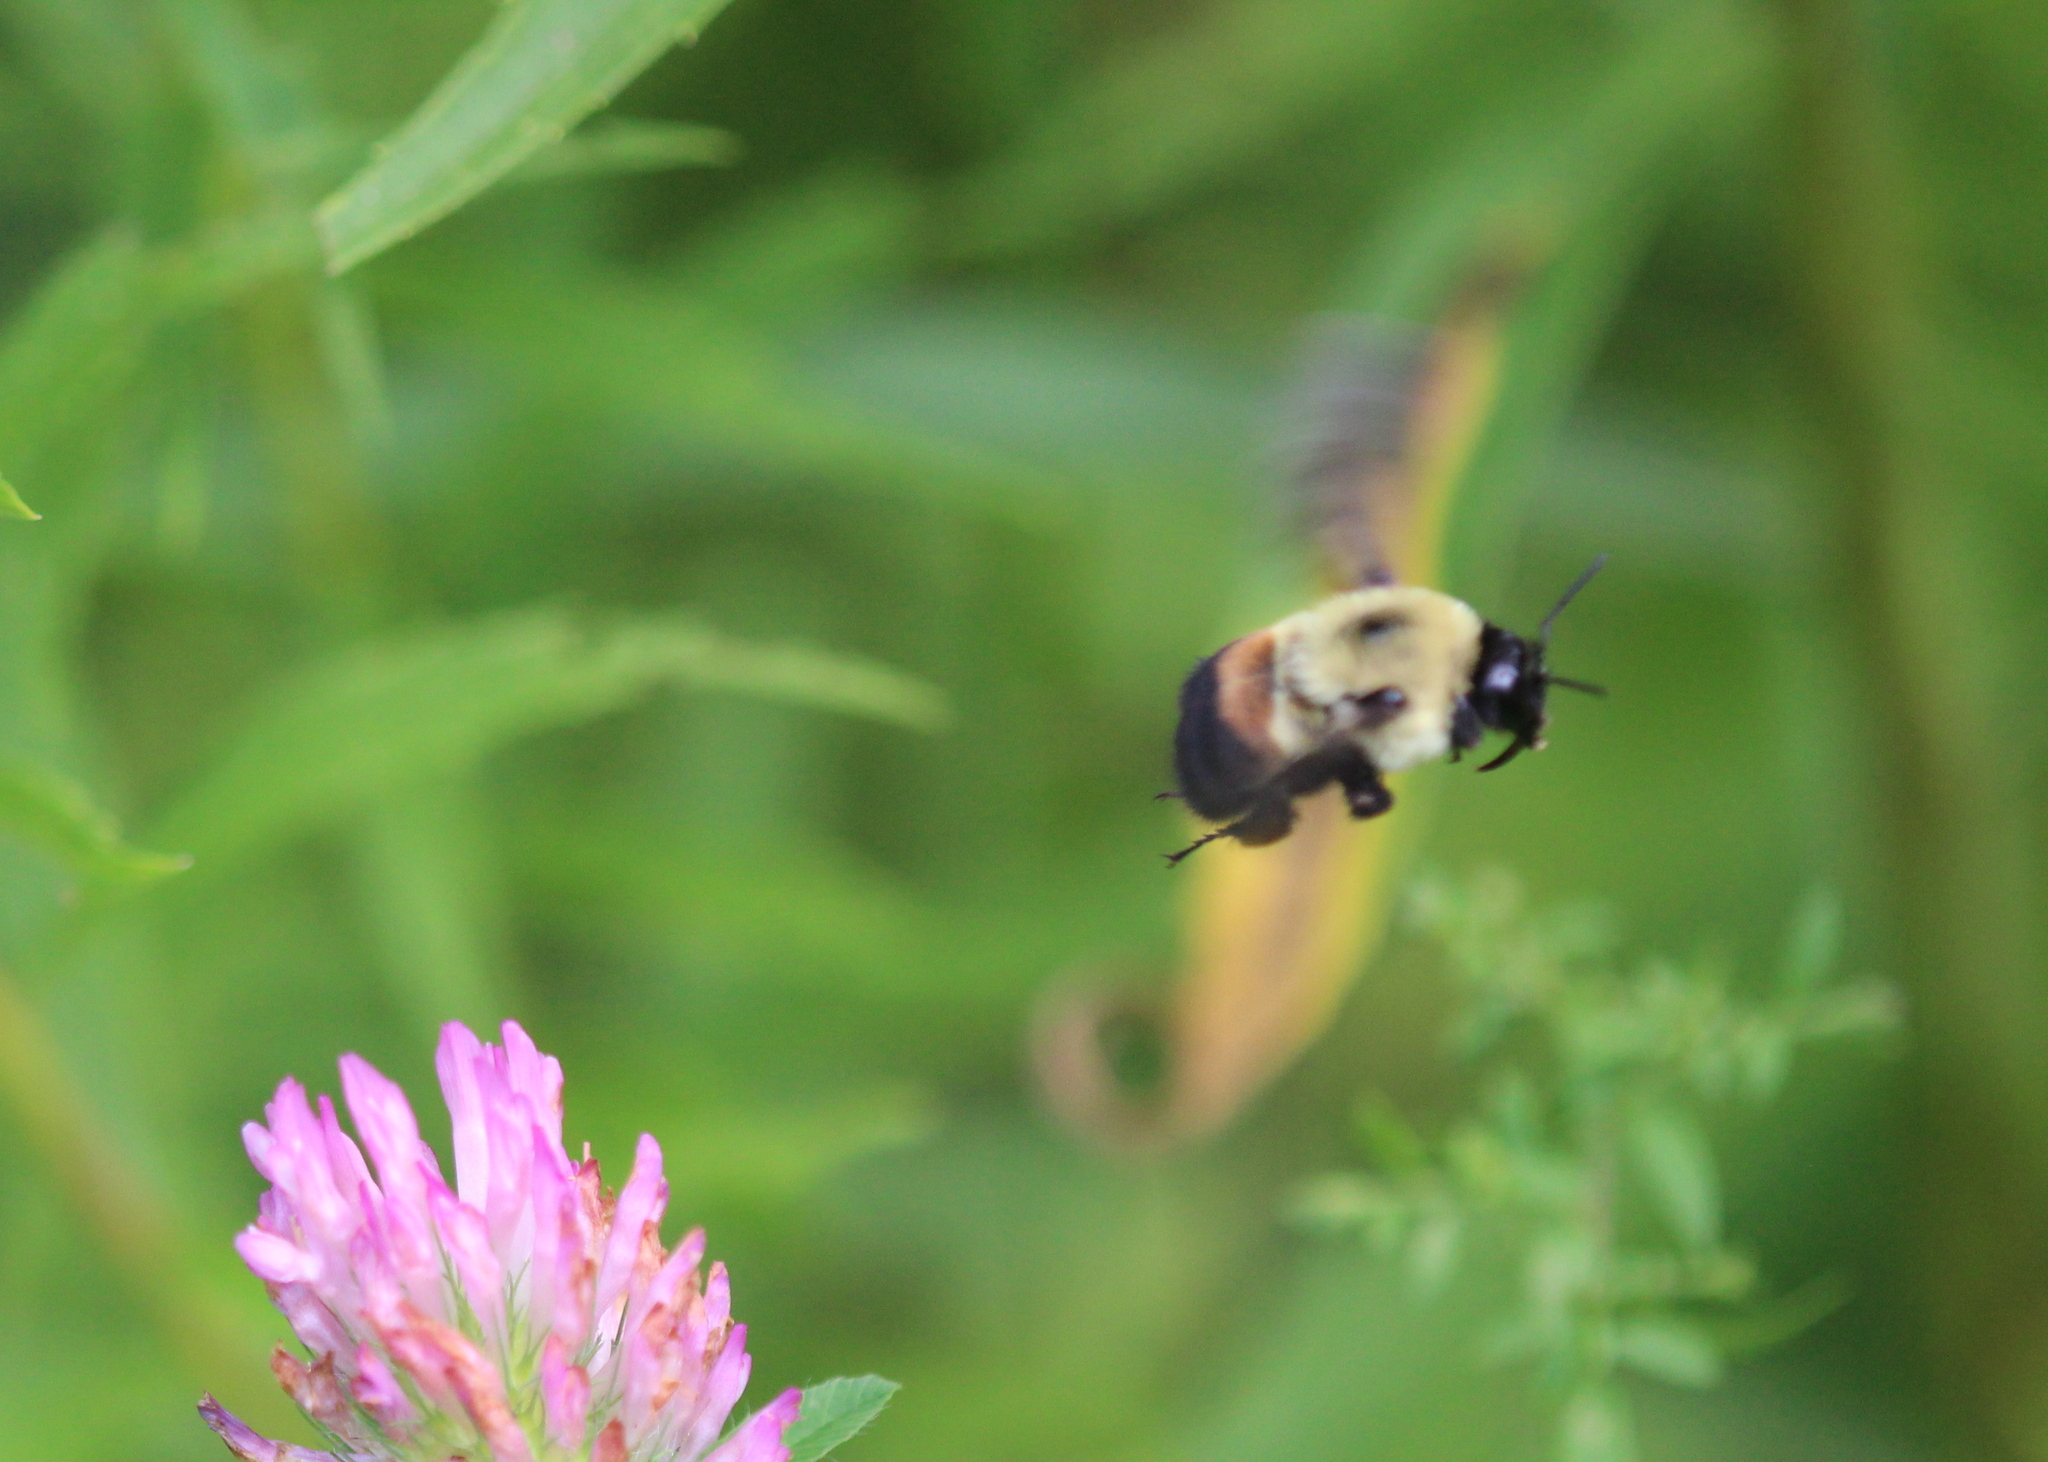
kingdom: Animalia
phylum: Arthropoda
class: Insecta
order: Hymenoptera
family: Apidae
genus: Bombus
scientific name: Bombus griseocollis
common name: Brown-belted bumble bee
